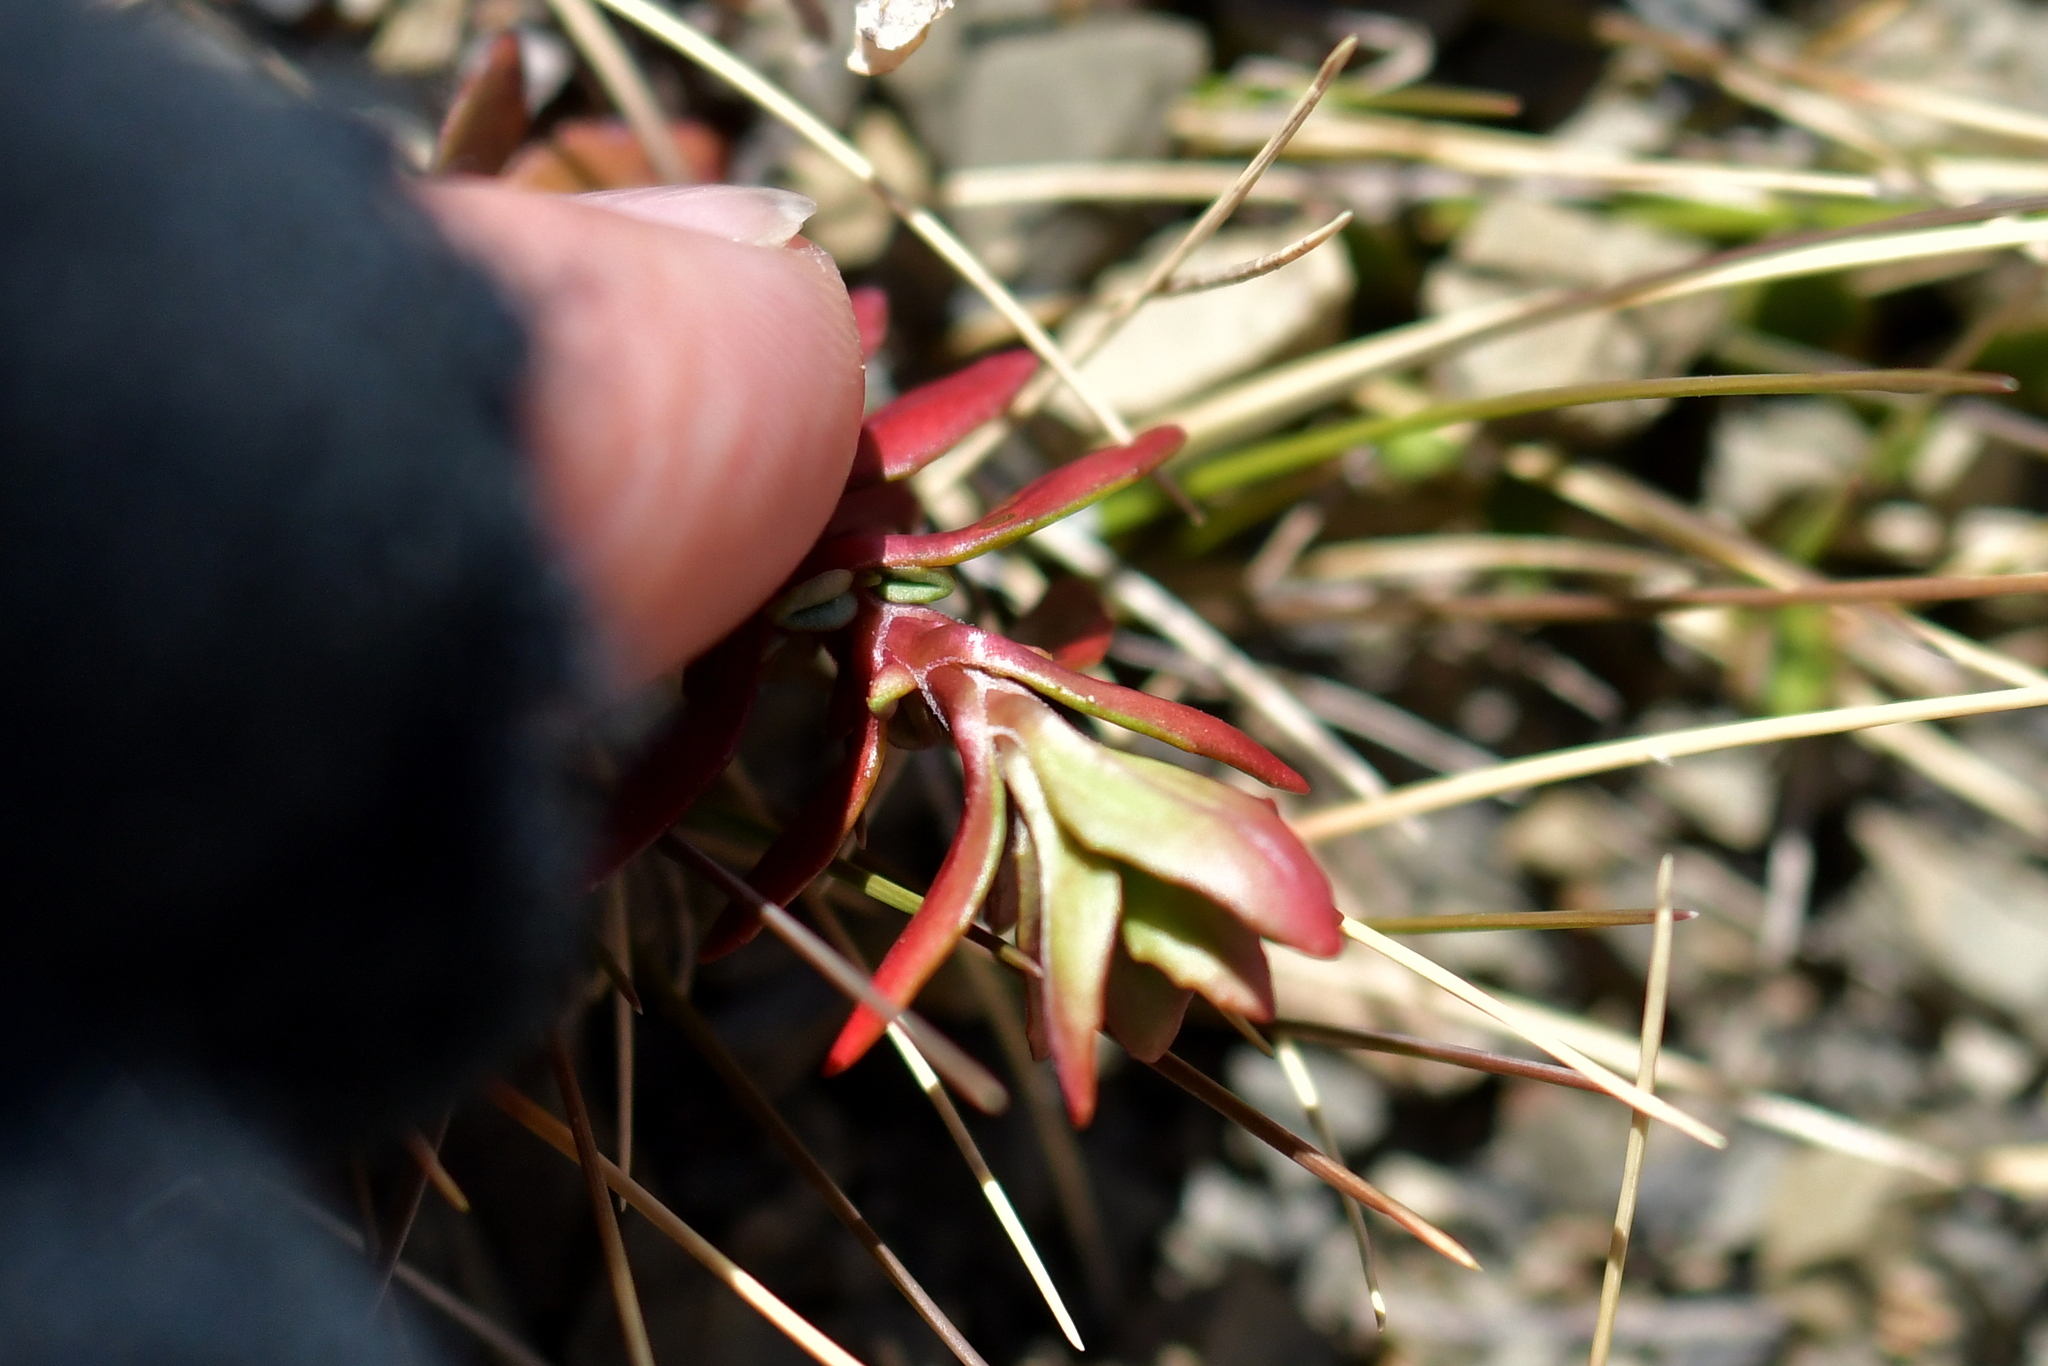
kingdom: Plantae
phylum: Tracheophyta
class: Magnoliopsida
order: Myrtales
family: Onagraceae
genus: Epilobium
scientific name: Epilobium hectorii
